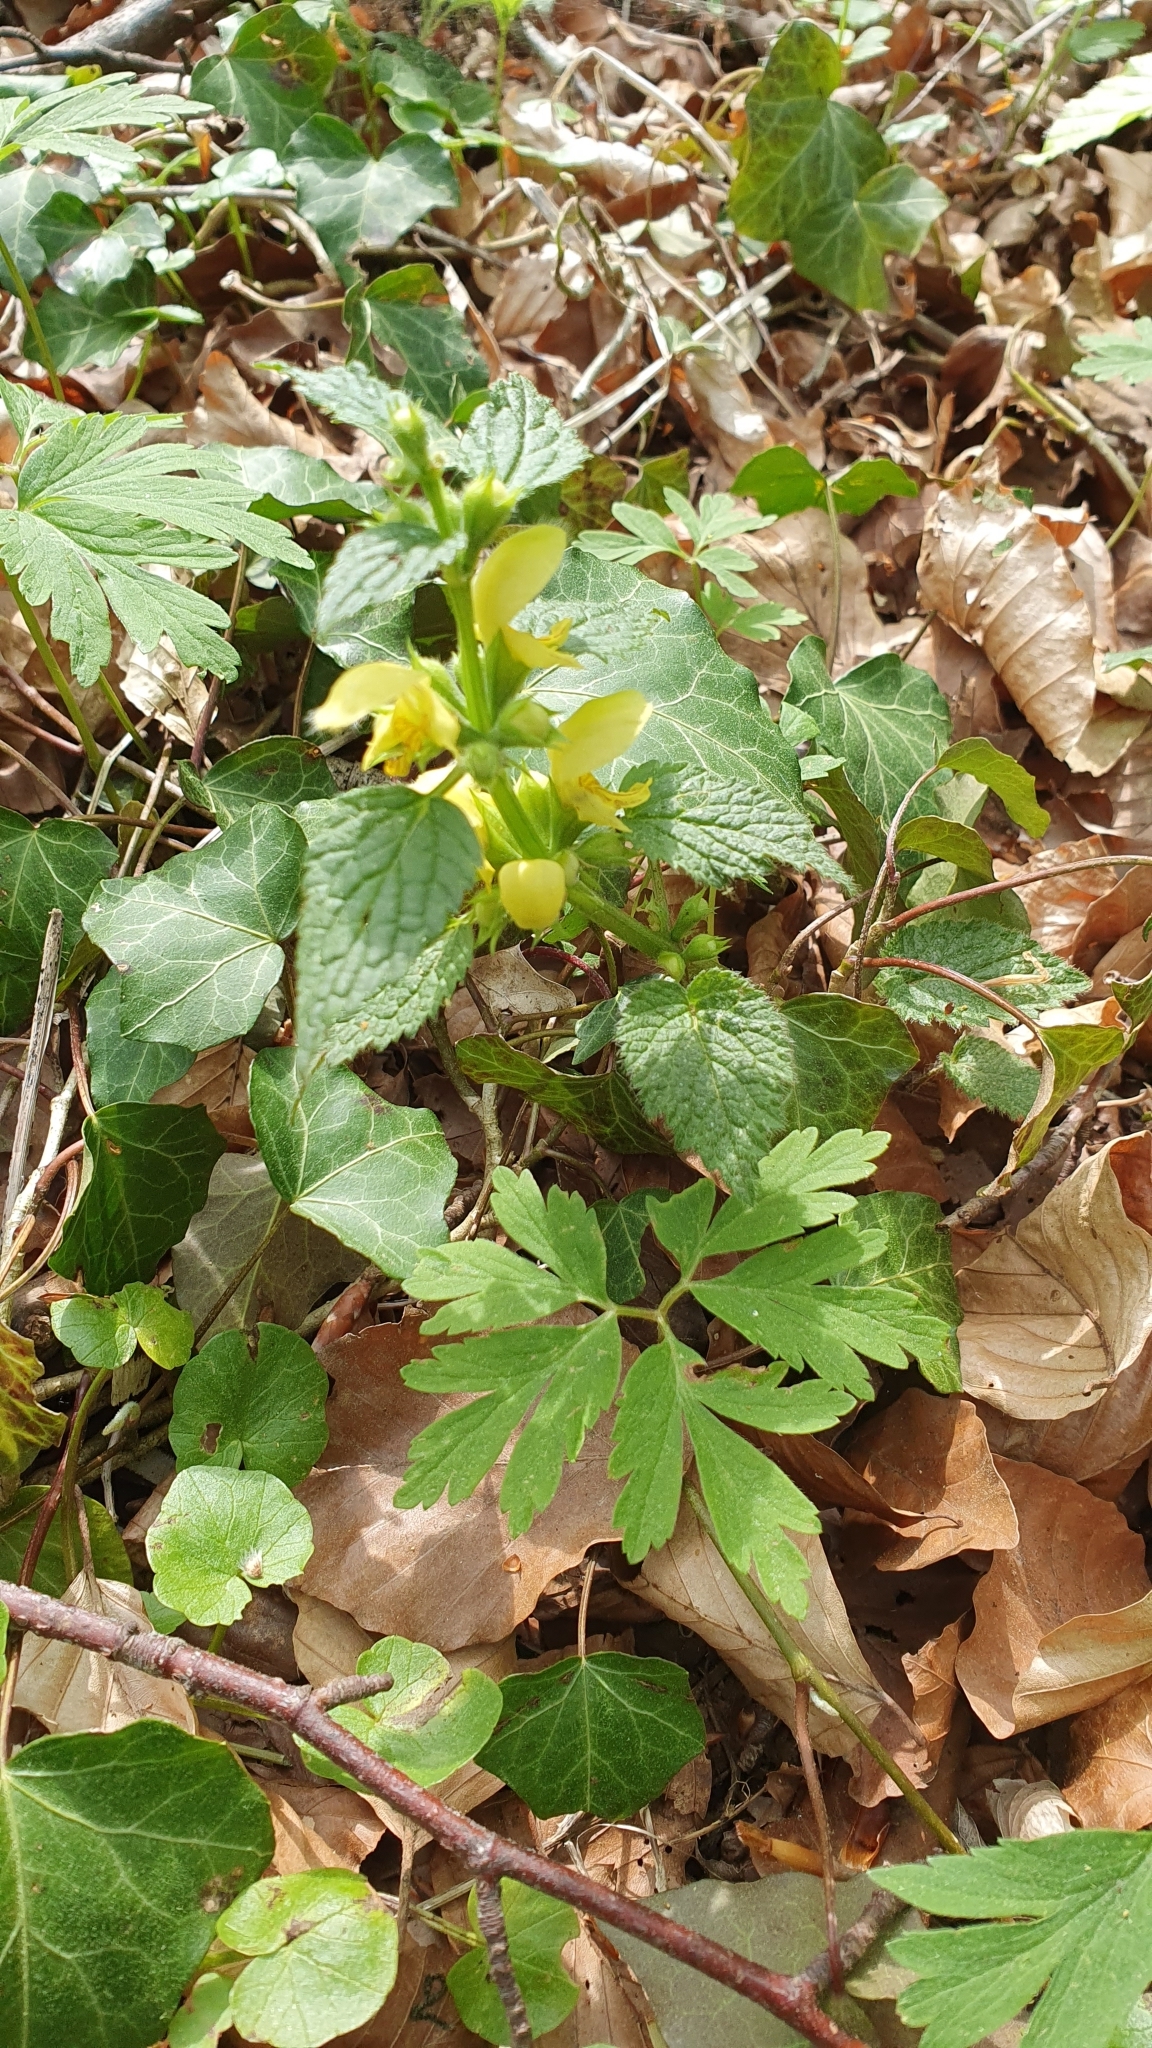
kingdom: Plantae
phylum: Tracheophyta
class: Magnoliopsida
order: Lamiales
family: Lamiaceae
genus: Lamium
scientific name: Lamium galeobdolon
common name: Yellow archangel
